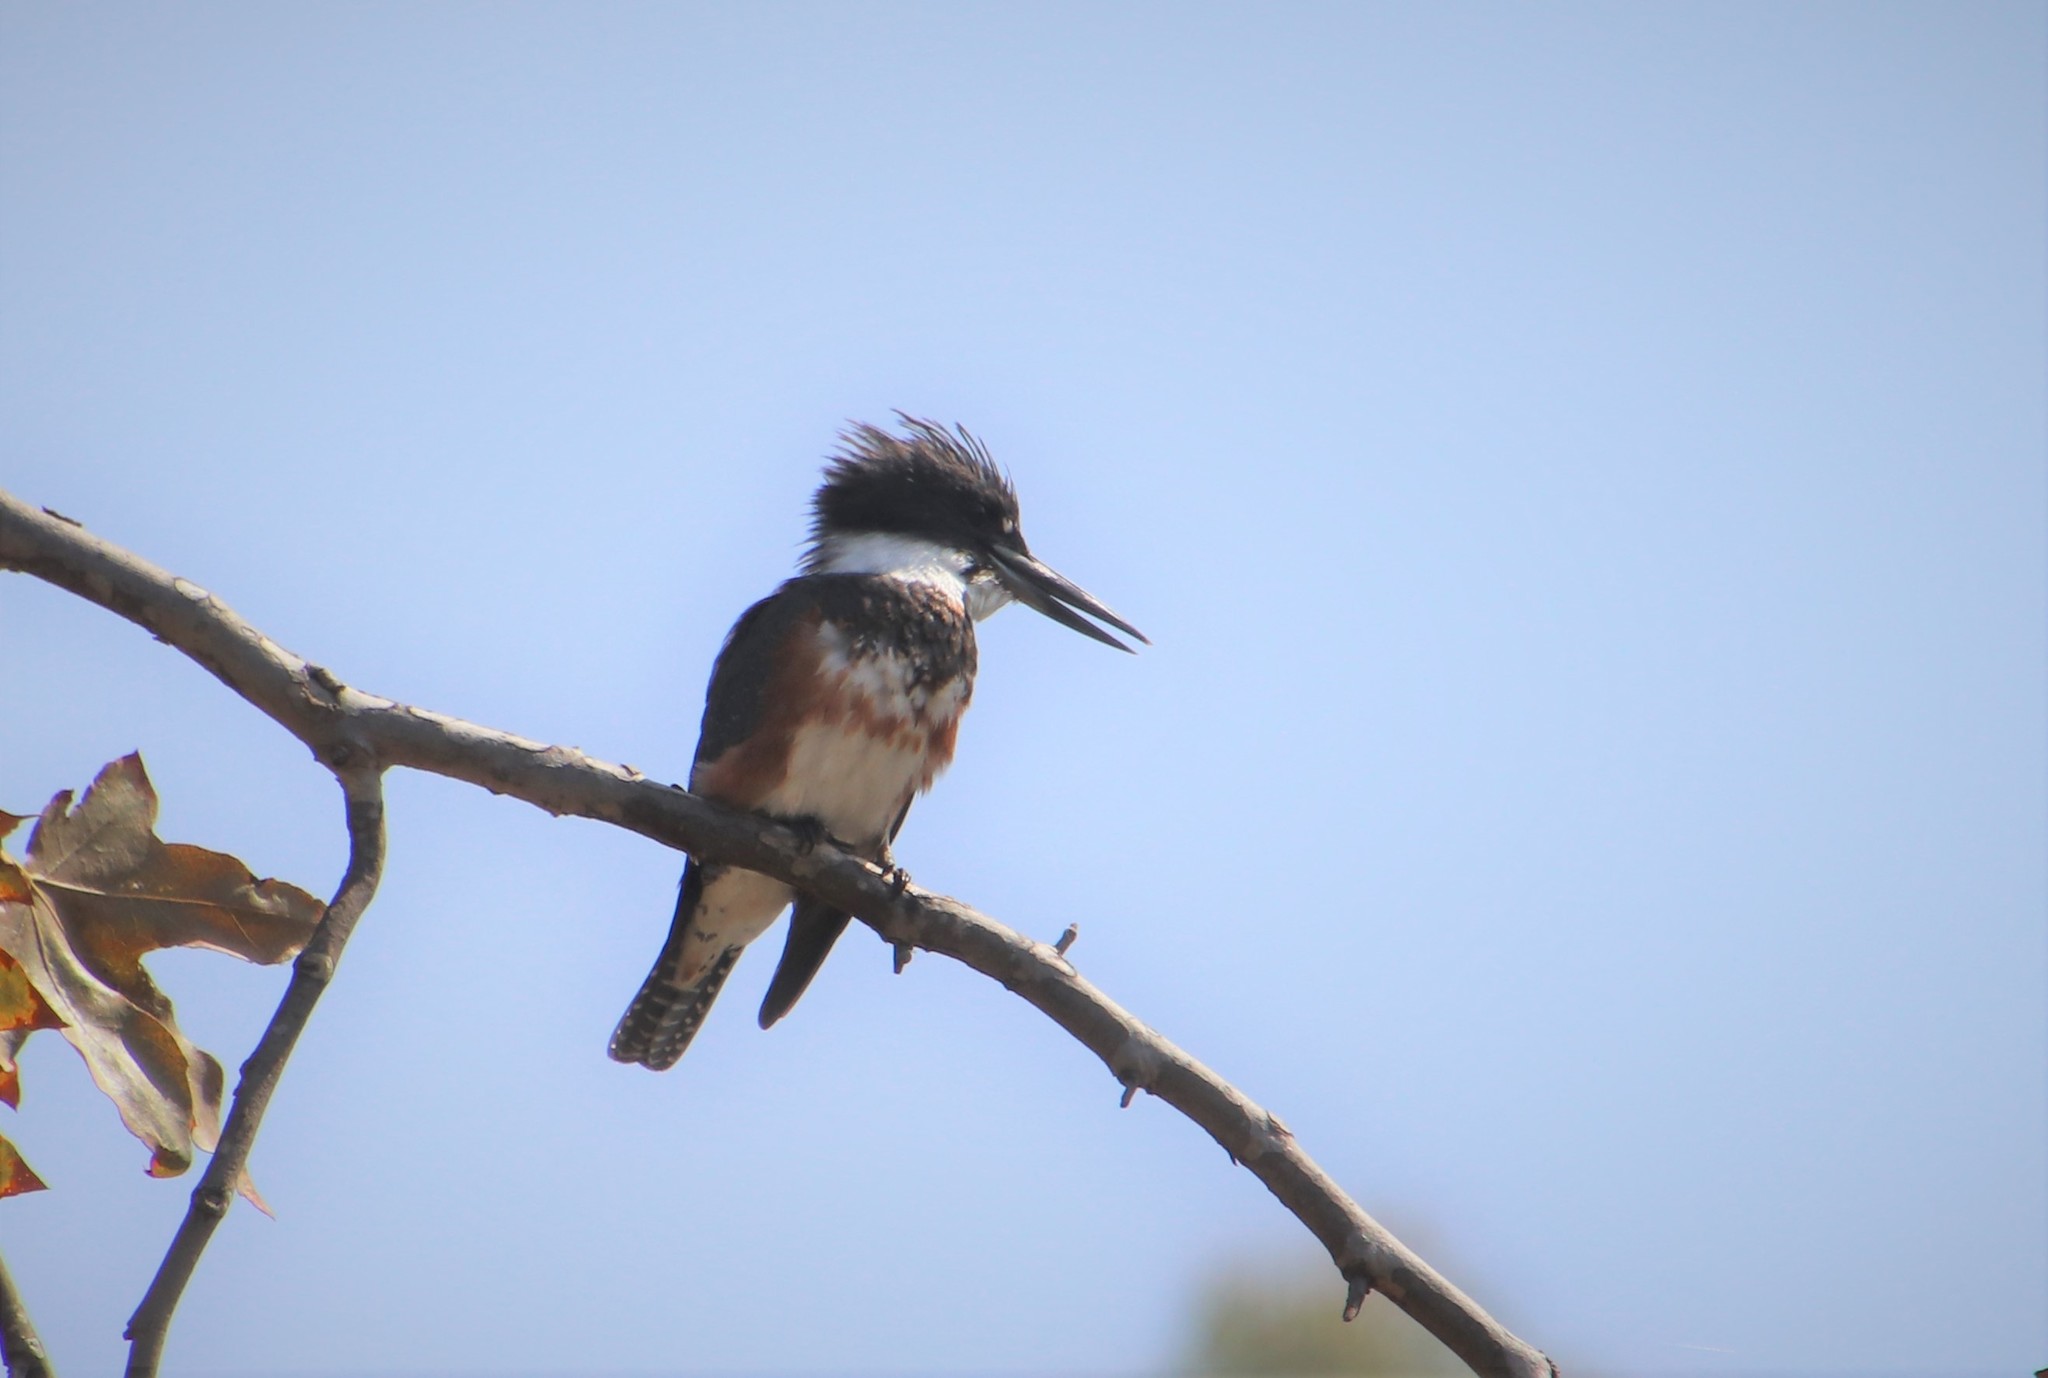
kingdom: Animalia
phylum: Chordata
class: Aves
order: Coraciiformes
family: Alcedinidae
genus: Megaceryle
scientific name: Megaceryle alcyon
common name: Belted kingfisher
